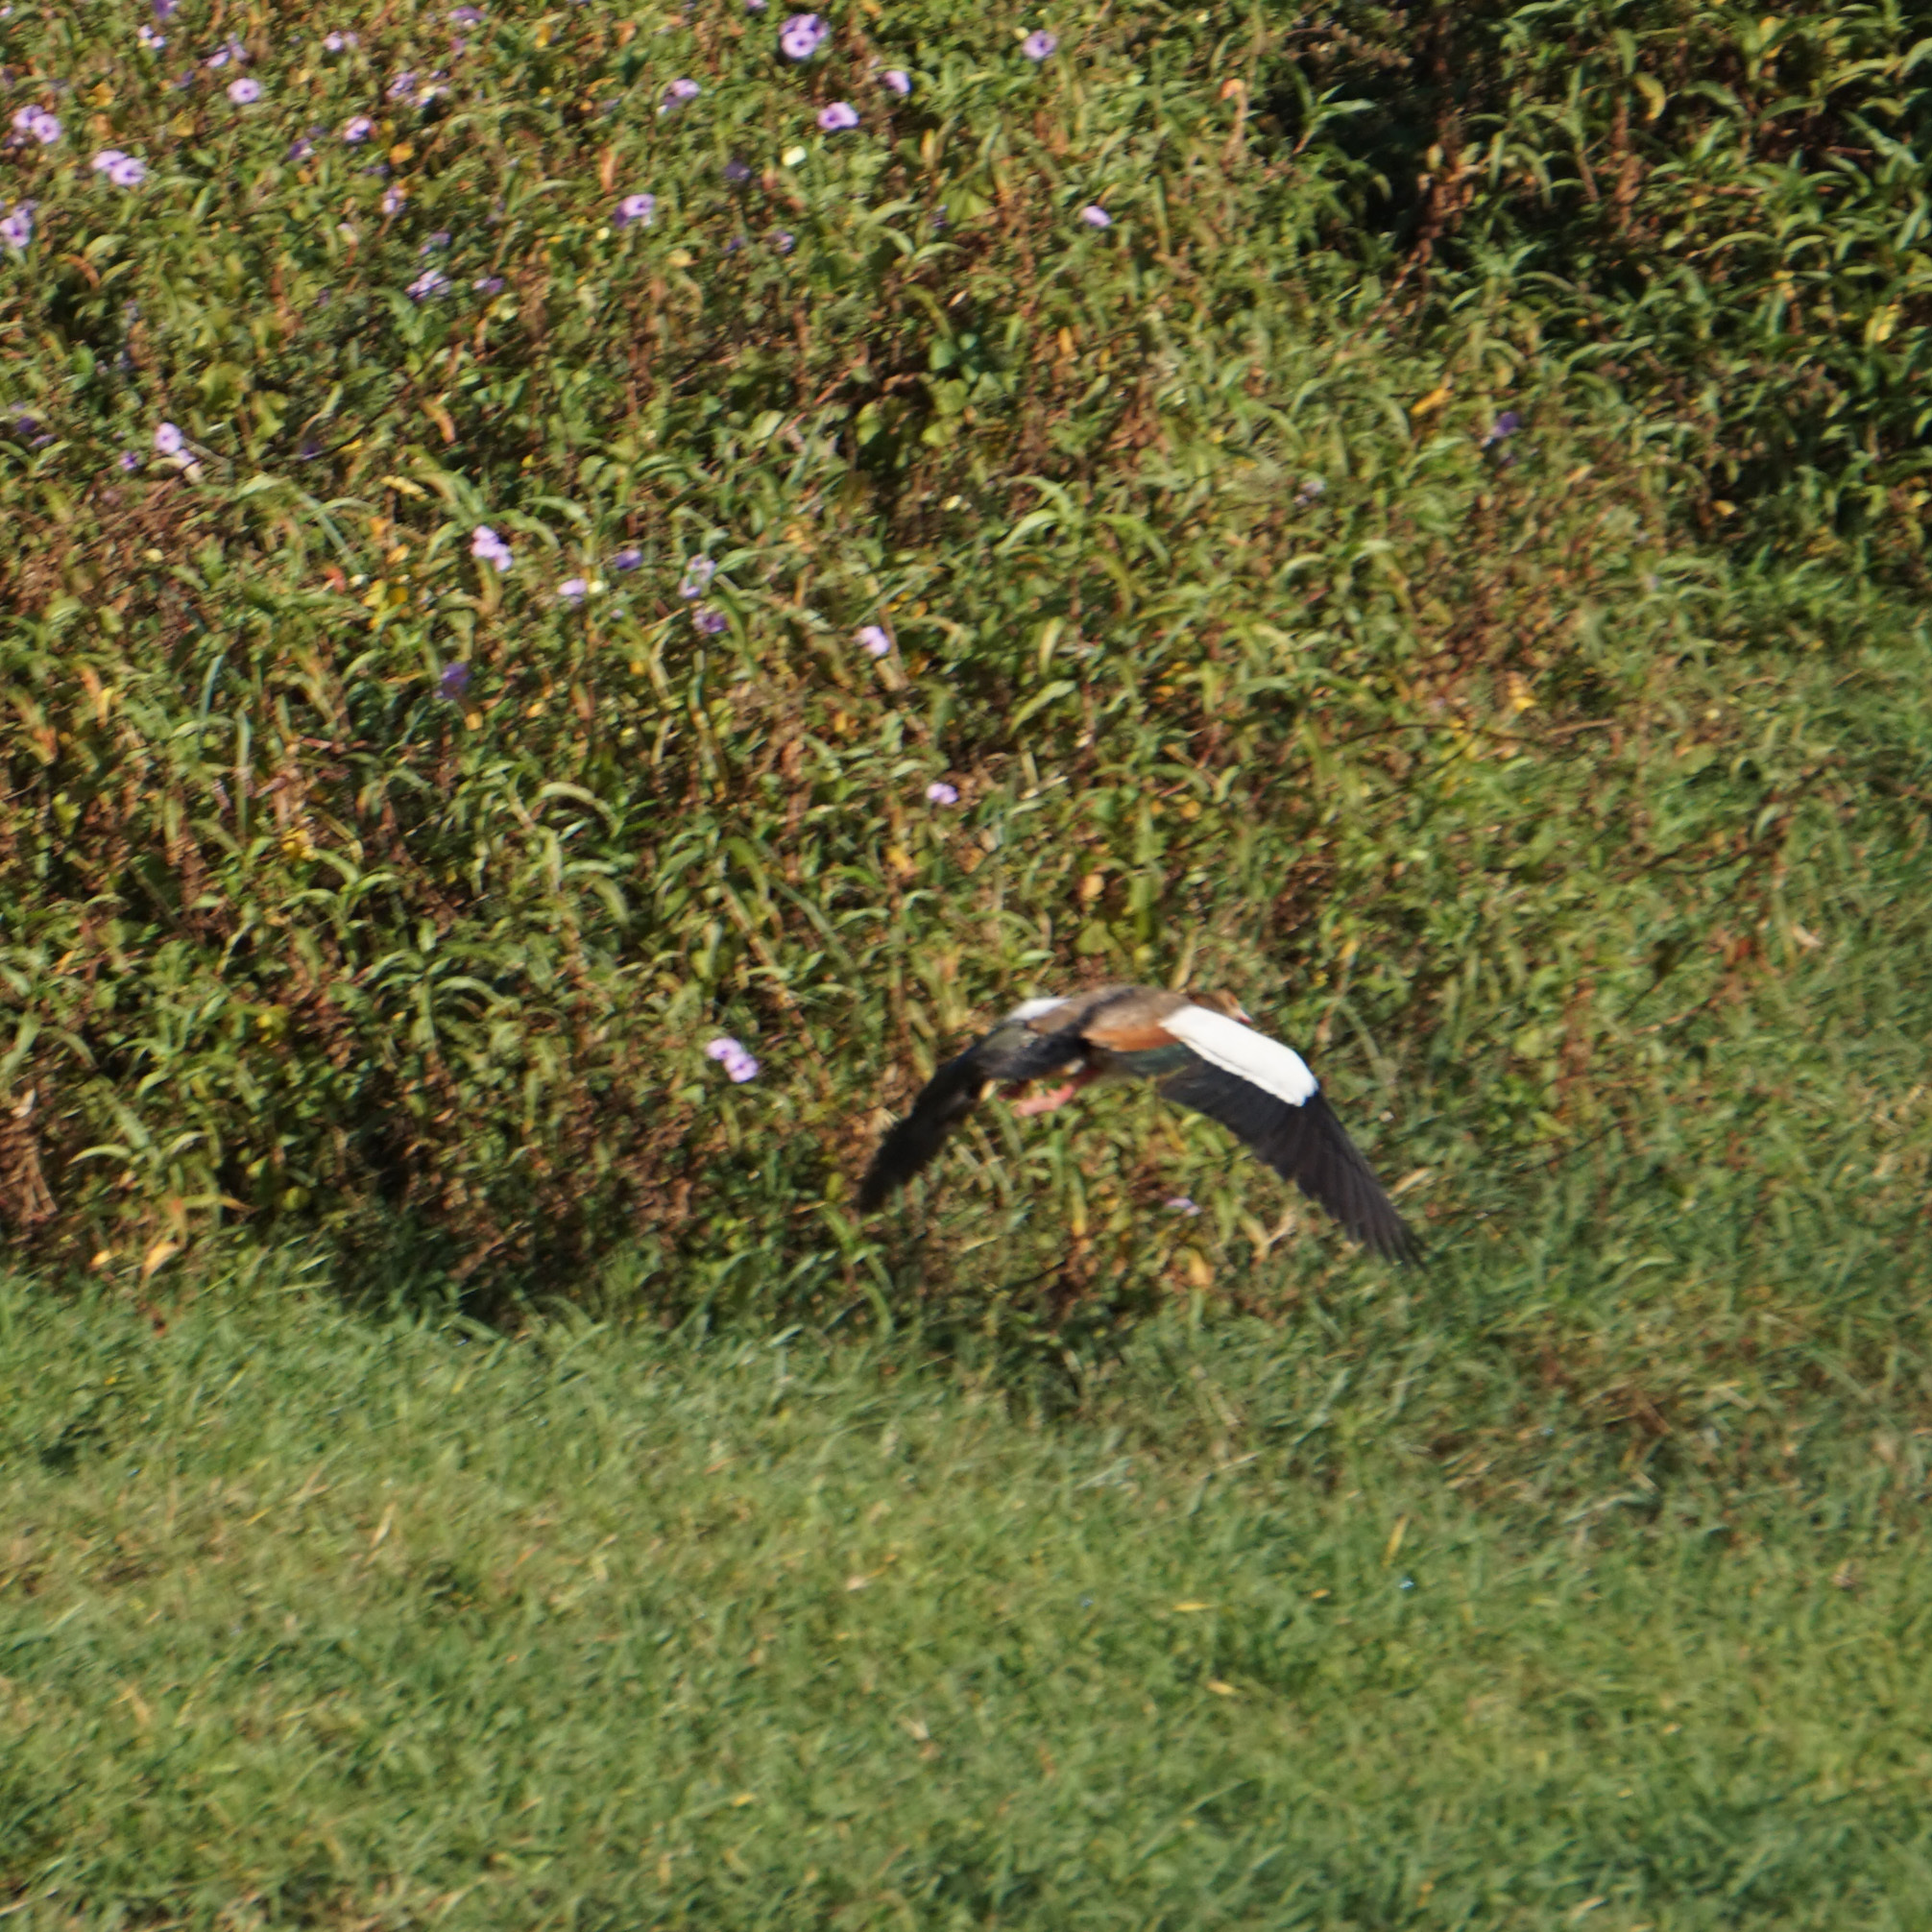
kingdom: Animalia
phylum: Chordata
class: Aves
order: Anseriformes
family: Anatidae
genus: Alopochen
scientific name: Alopochen aegyptiaca
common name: Egyptian goose
